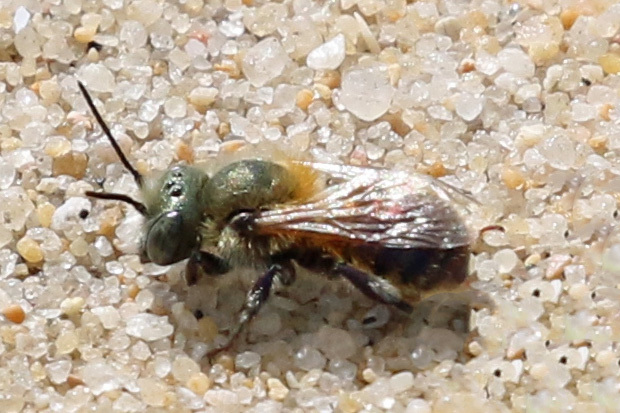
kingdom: Animalia
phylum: Arthropoda
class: Insecta
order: Hymenoptera
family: Megachilidae
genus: Osmia
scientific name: Osmia ferruginea
